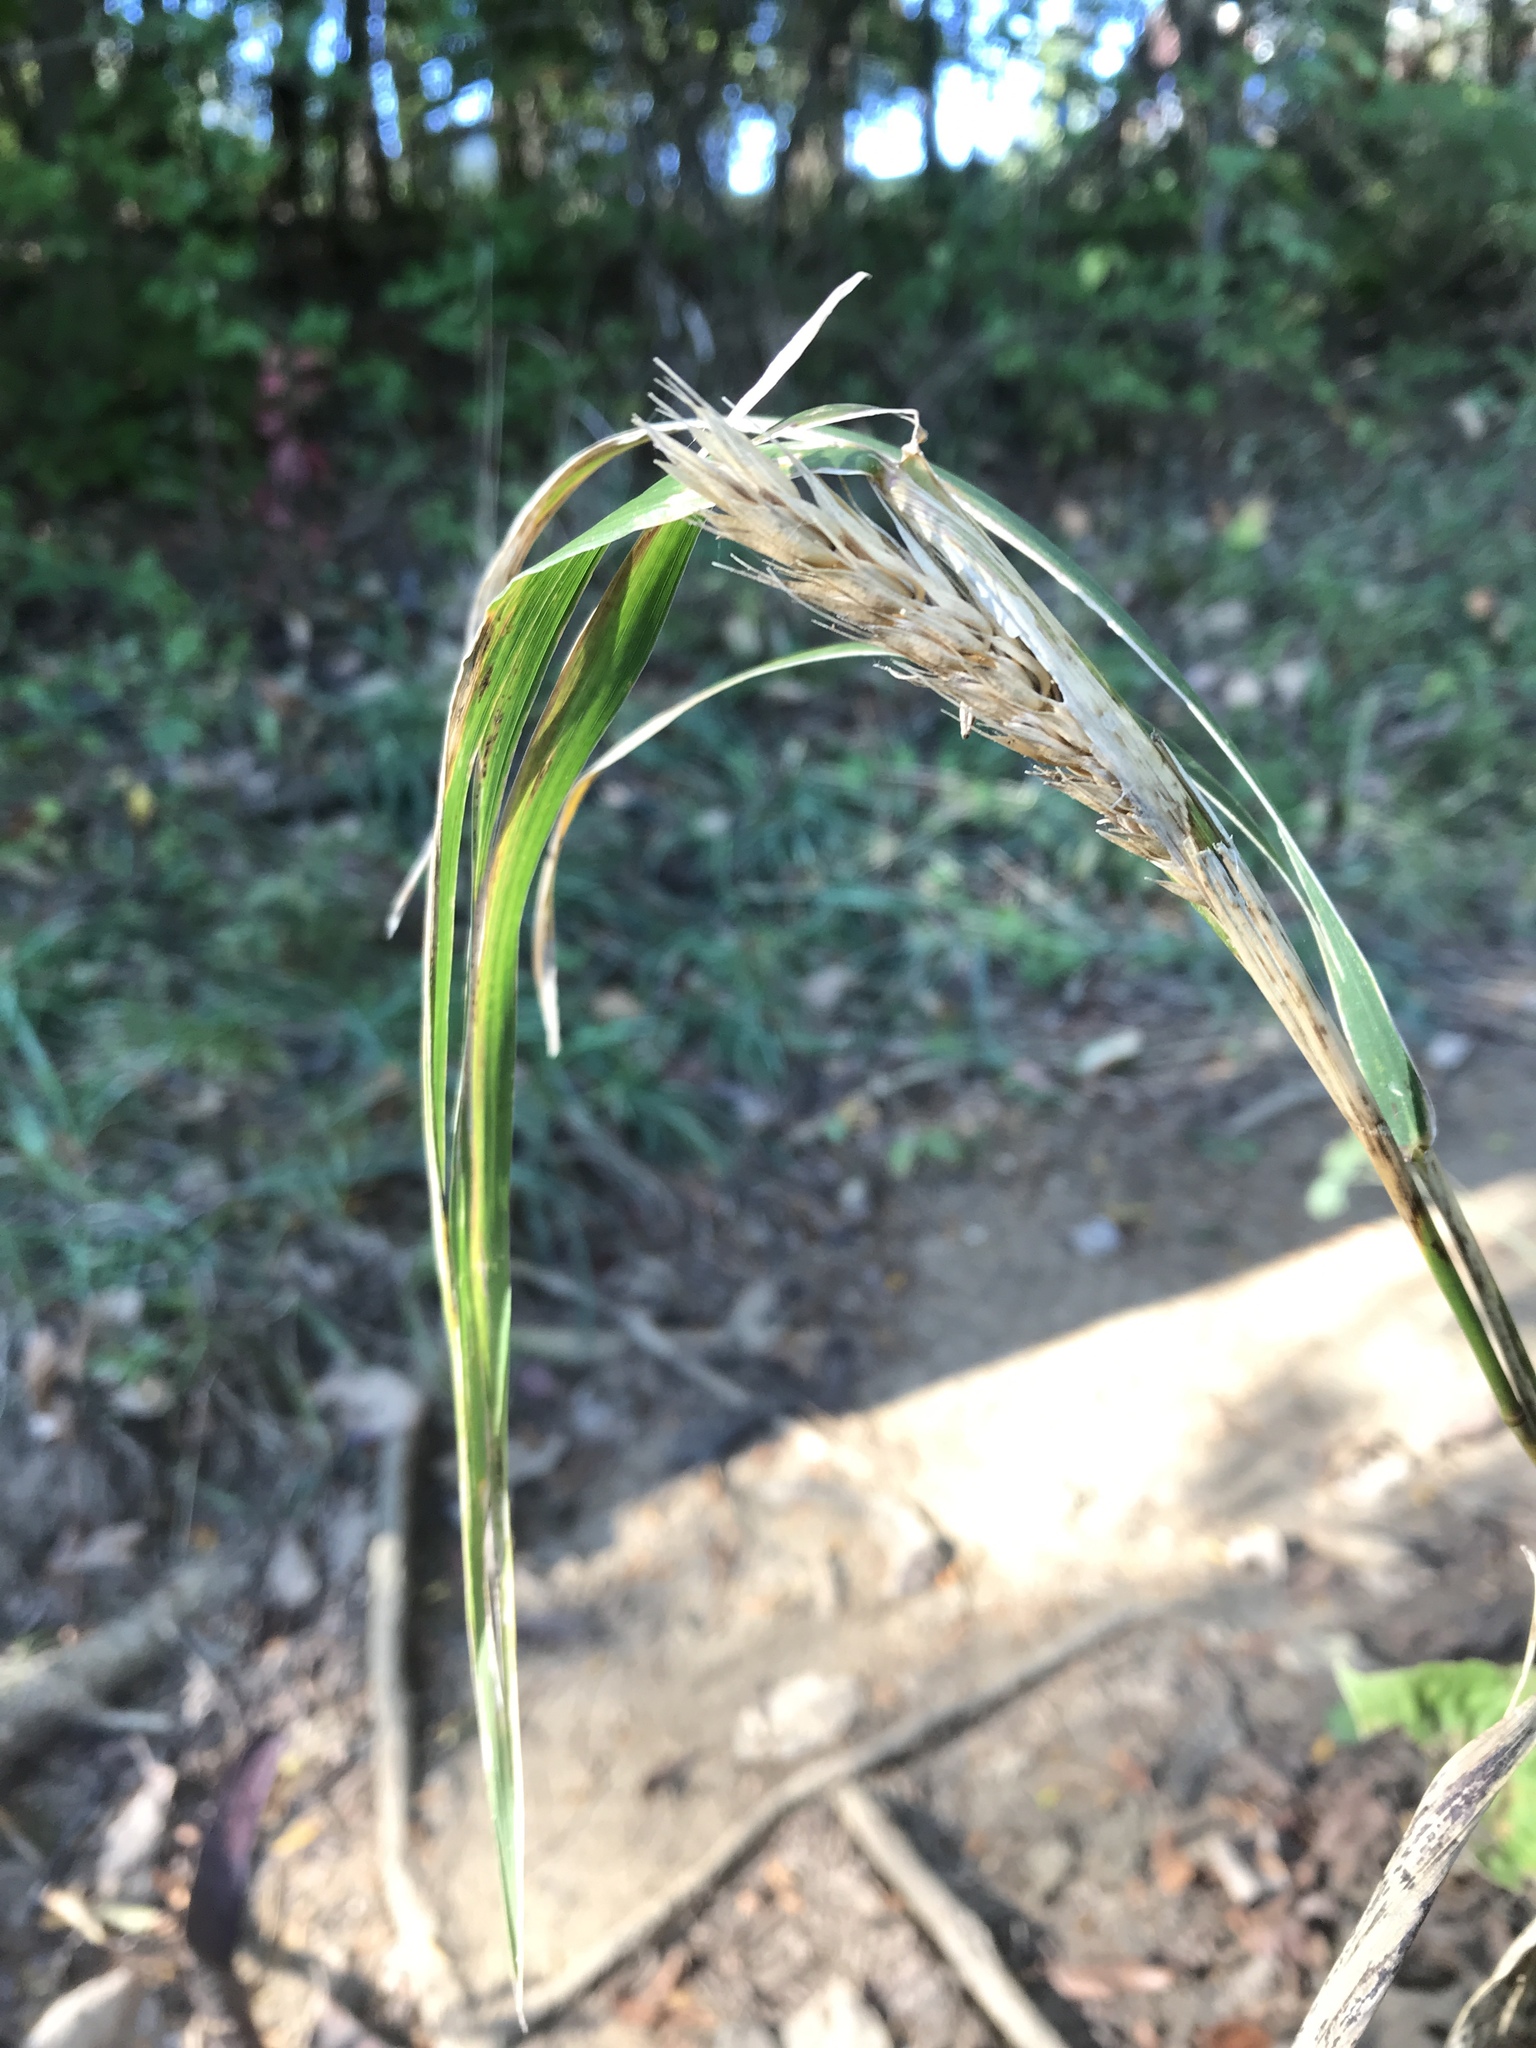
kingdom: Plantae
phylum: Tracheophyta
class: Liliopsida
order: Poales
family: Poaceae
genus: Elymus
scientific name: Elymus virginicus
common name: Common eastern wildrye
